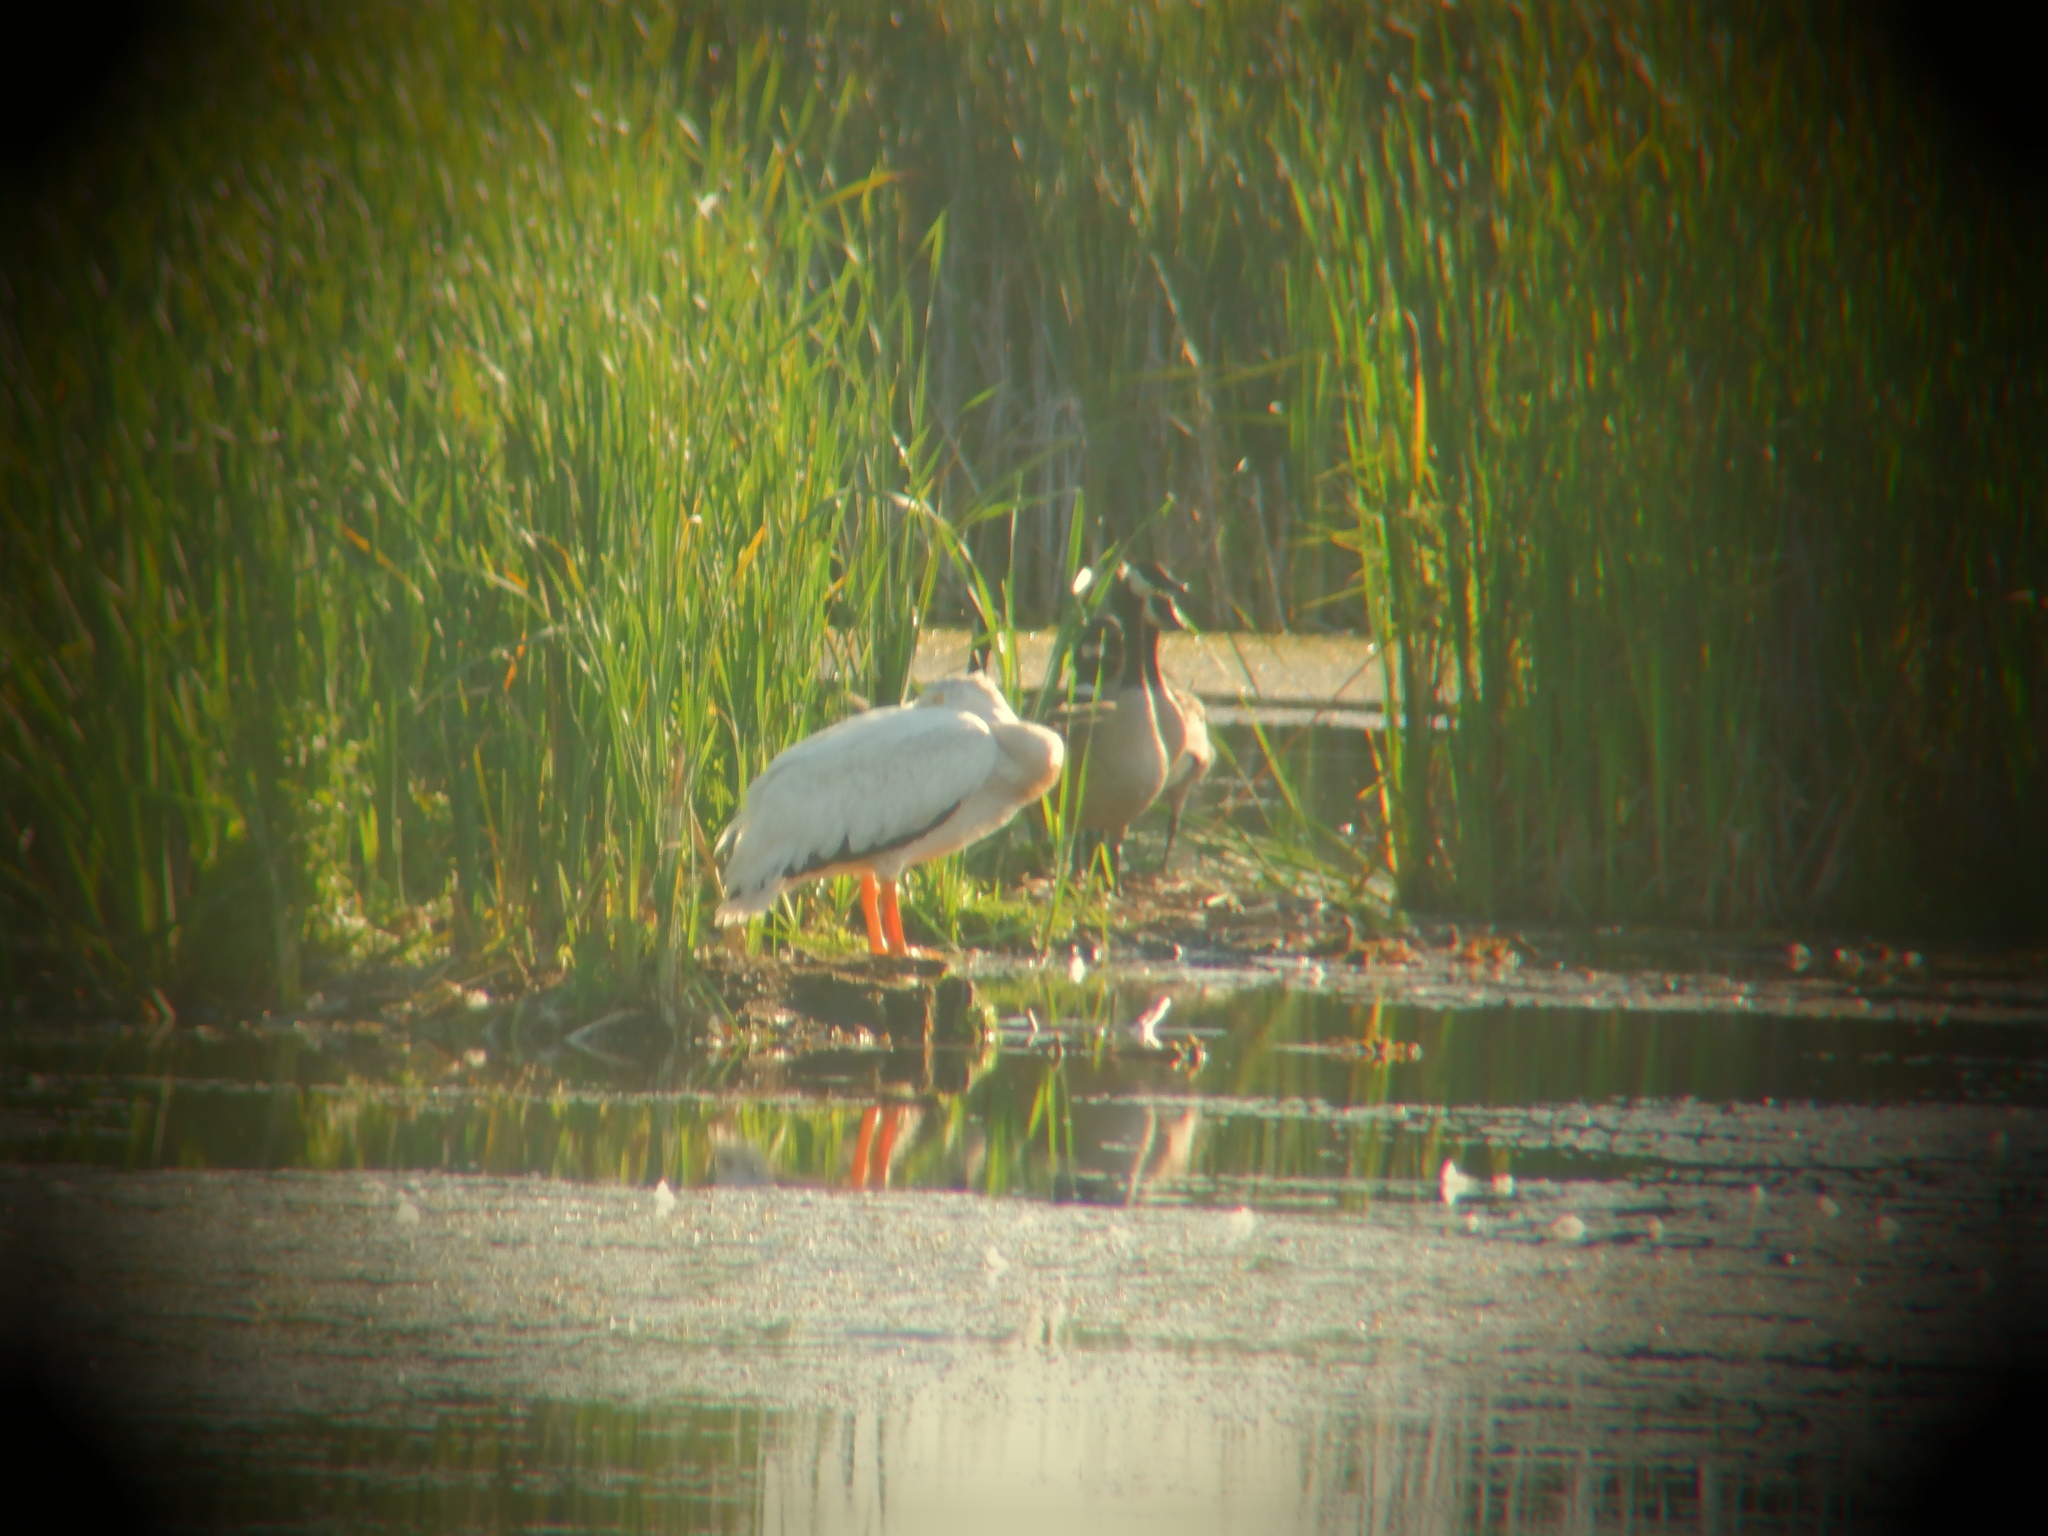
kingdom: Animalia
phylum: Chordata
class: Aves
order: Pelecaniformes
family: Pelecanidae
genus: Pelecanus
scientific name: Pelecanus erythrorhynchos
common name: American white pelican
